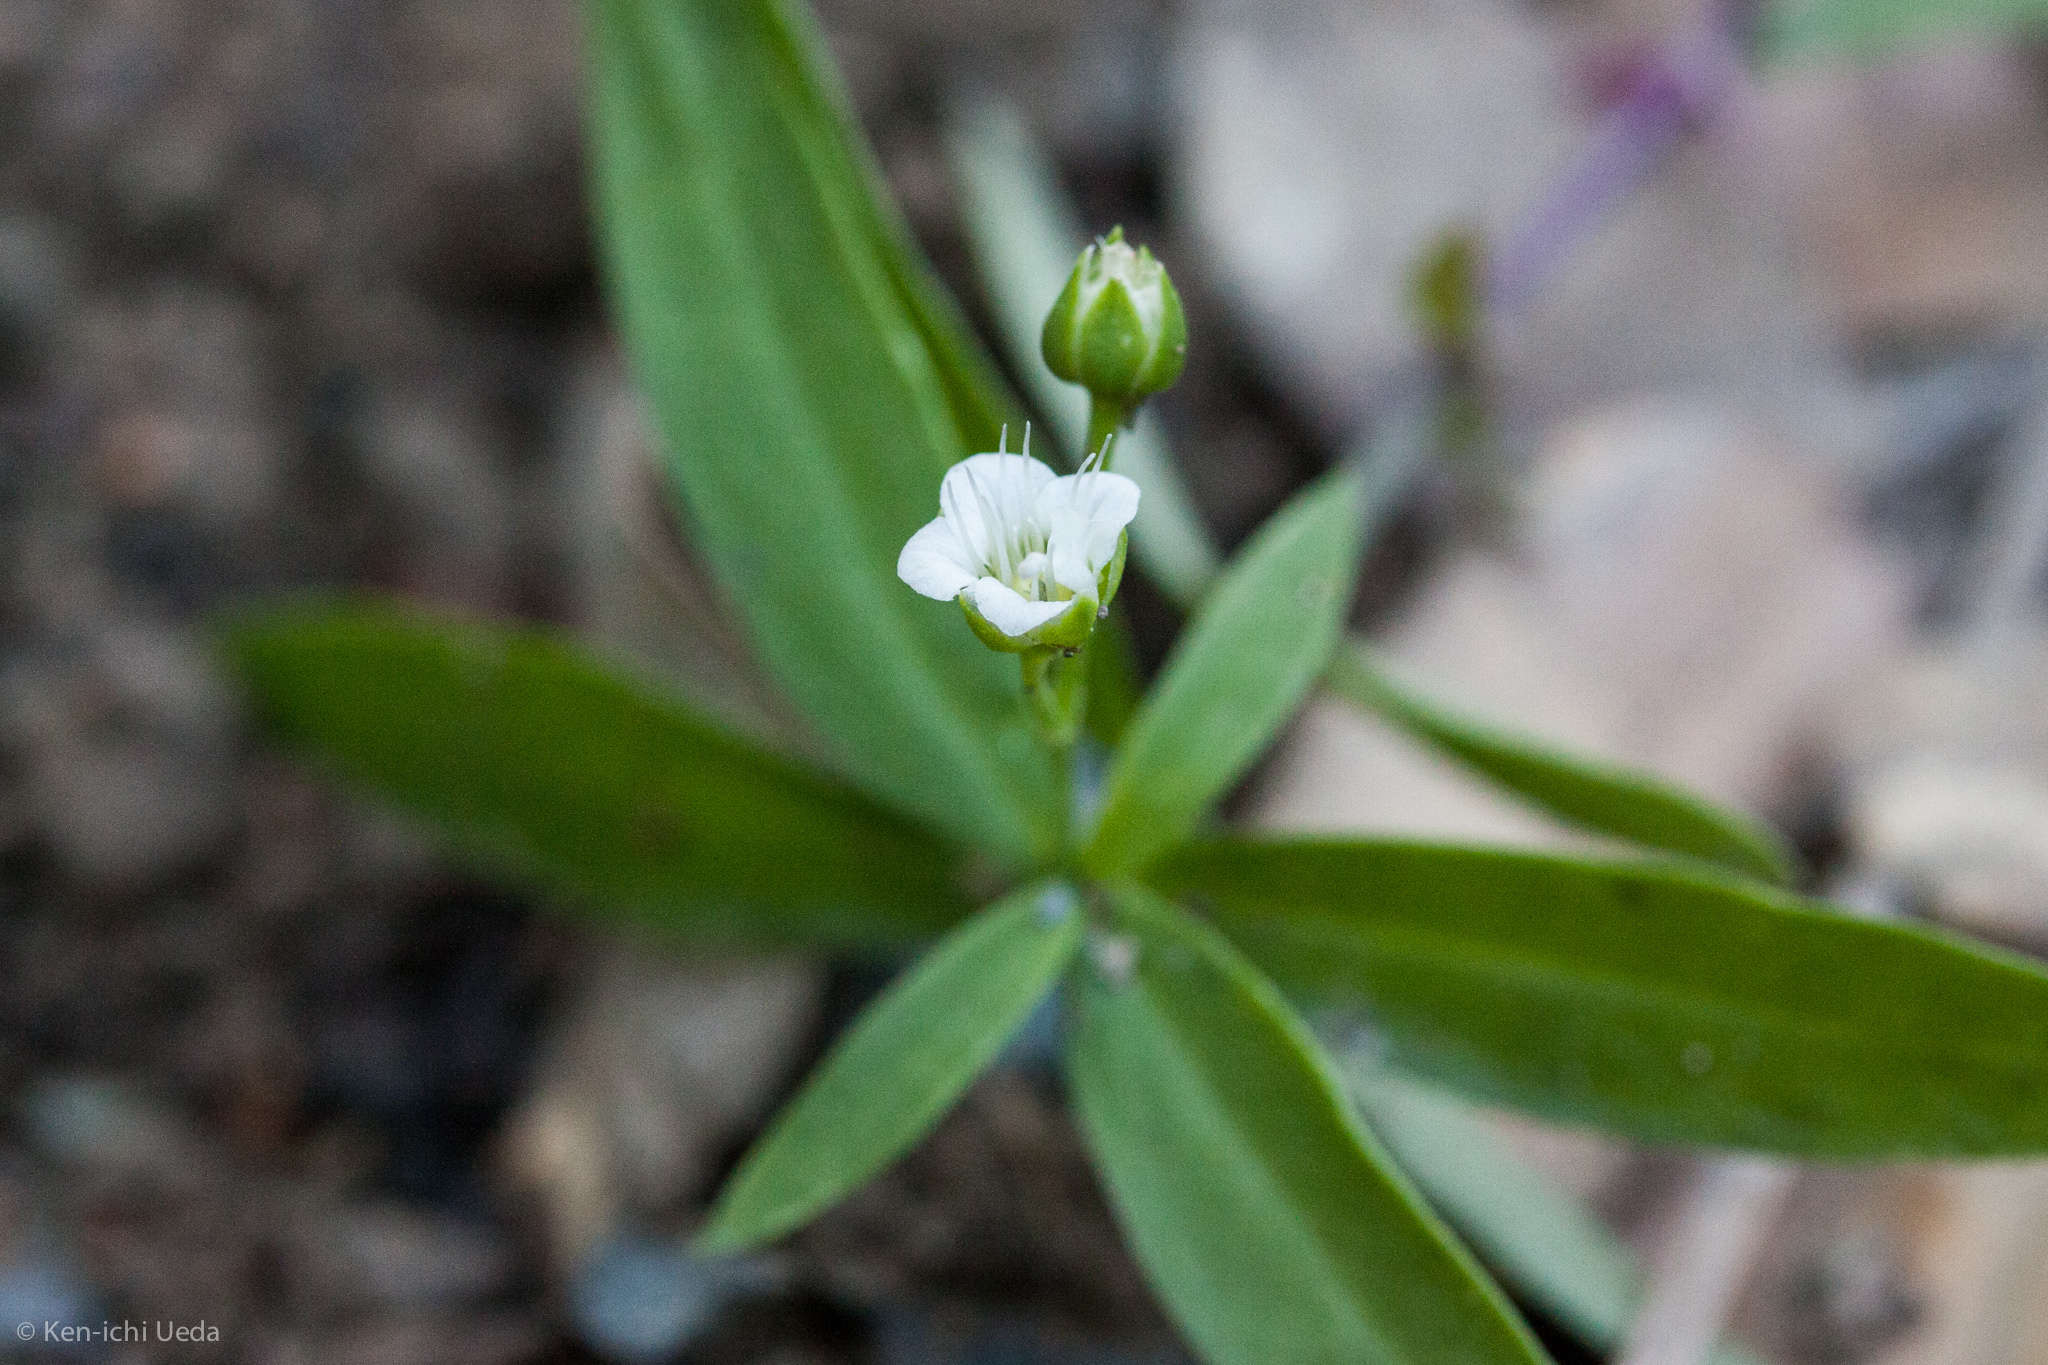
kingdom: Plantae
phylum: Tracheophyta
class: Magnoliopsida
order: Caryophyllales
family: Caryophyllaceae
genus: Moehringia
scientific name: Moehringia macrophylla
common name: Big-leaf sandwort
